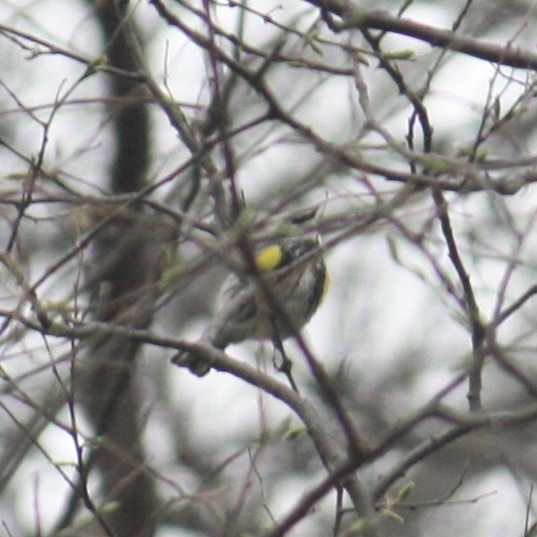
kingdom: Animalia
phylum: Chordata
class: Aves
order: Passeriformes
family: Parulidae
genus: Setophaga
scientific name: Setophaga coronata
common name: Myrtle warbler
